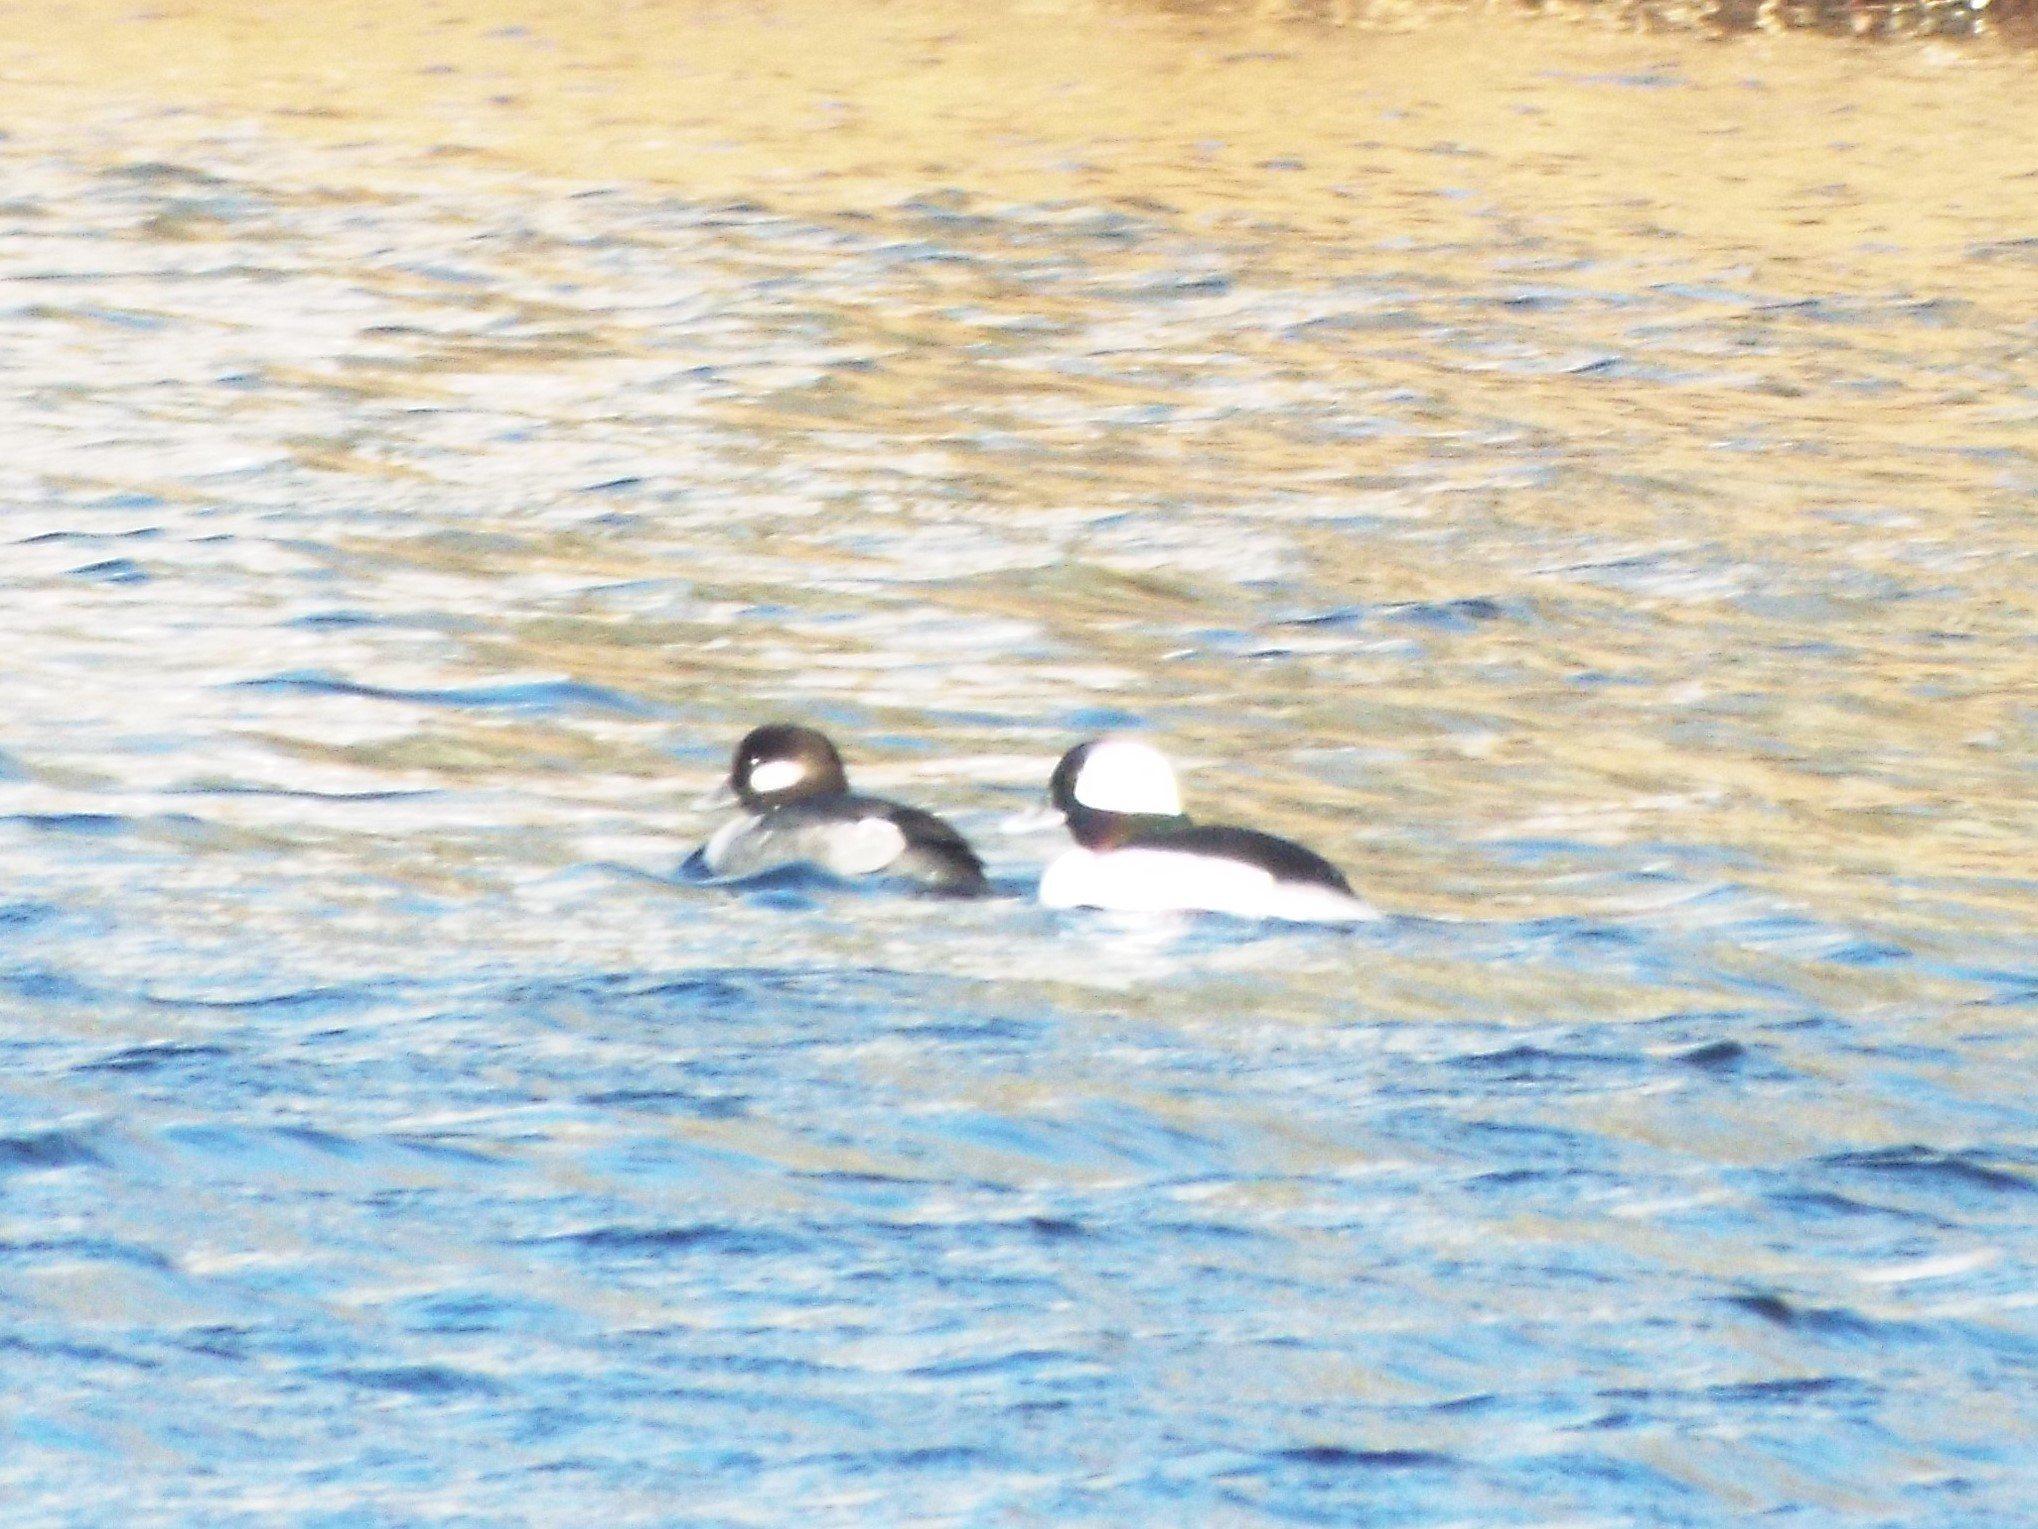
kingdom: Animalia
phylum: Chordata
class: Aves
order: Anseriformes
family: Anatidae
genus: Bucephala
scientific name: Bucephala albeola
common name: Bufflehead
